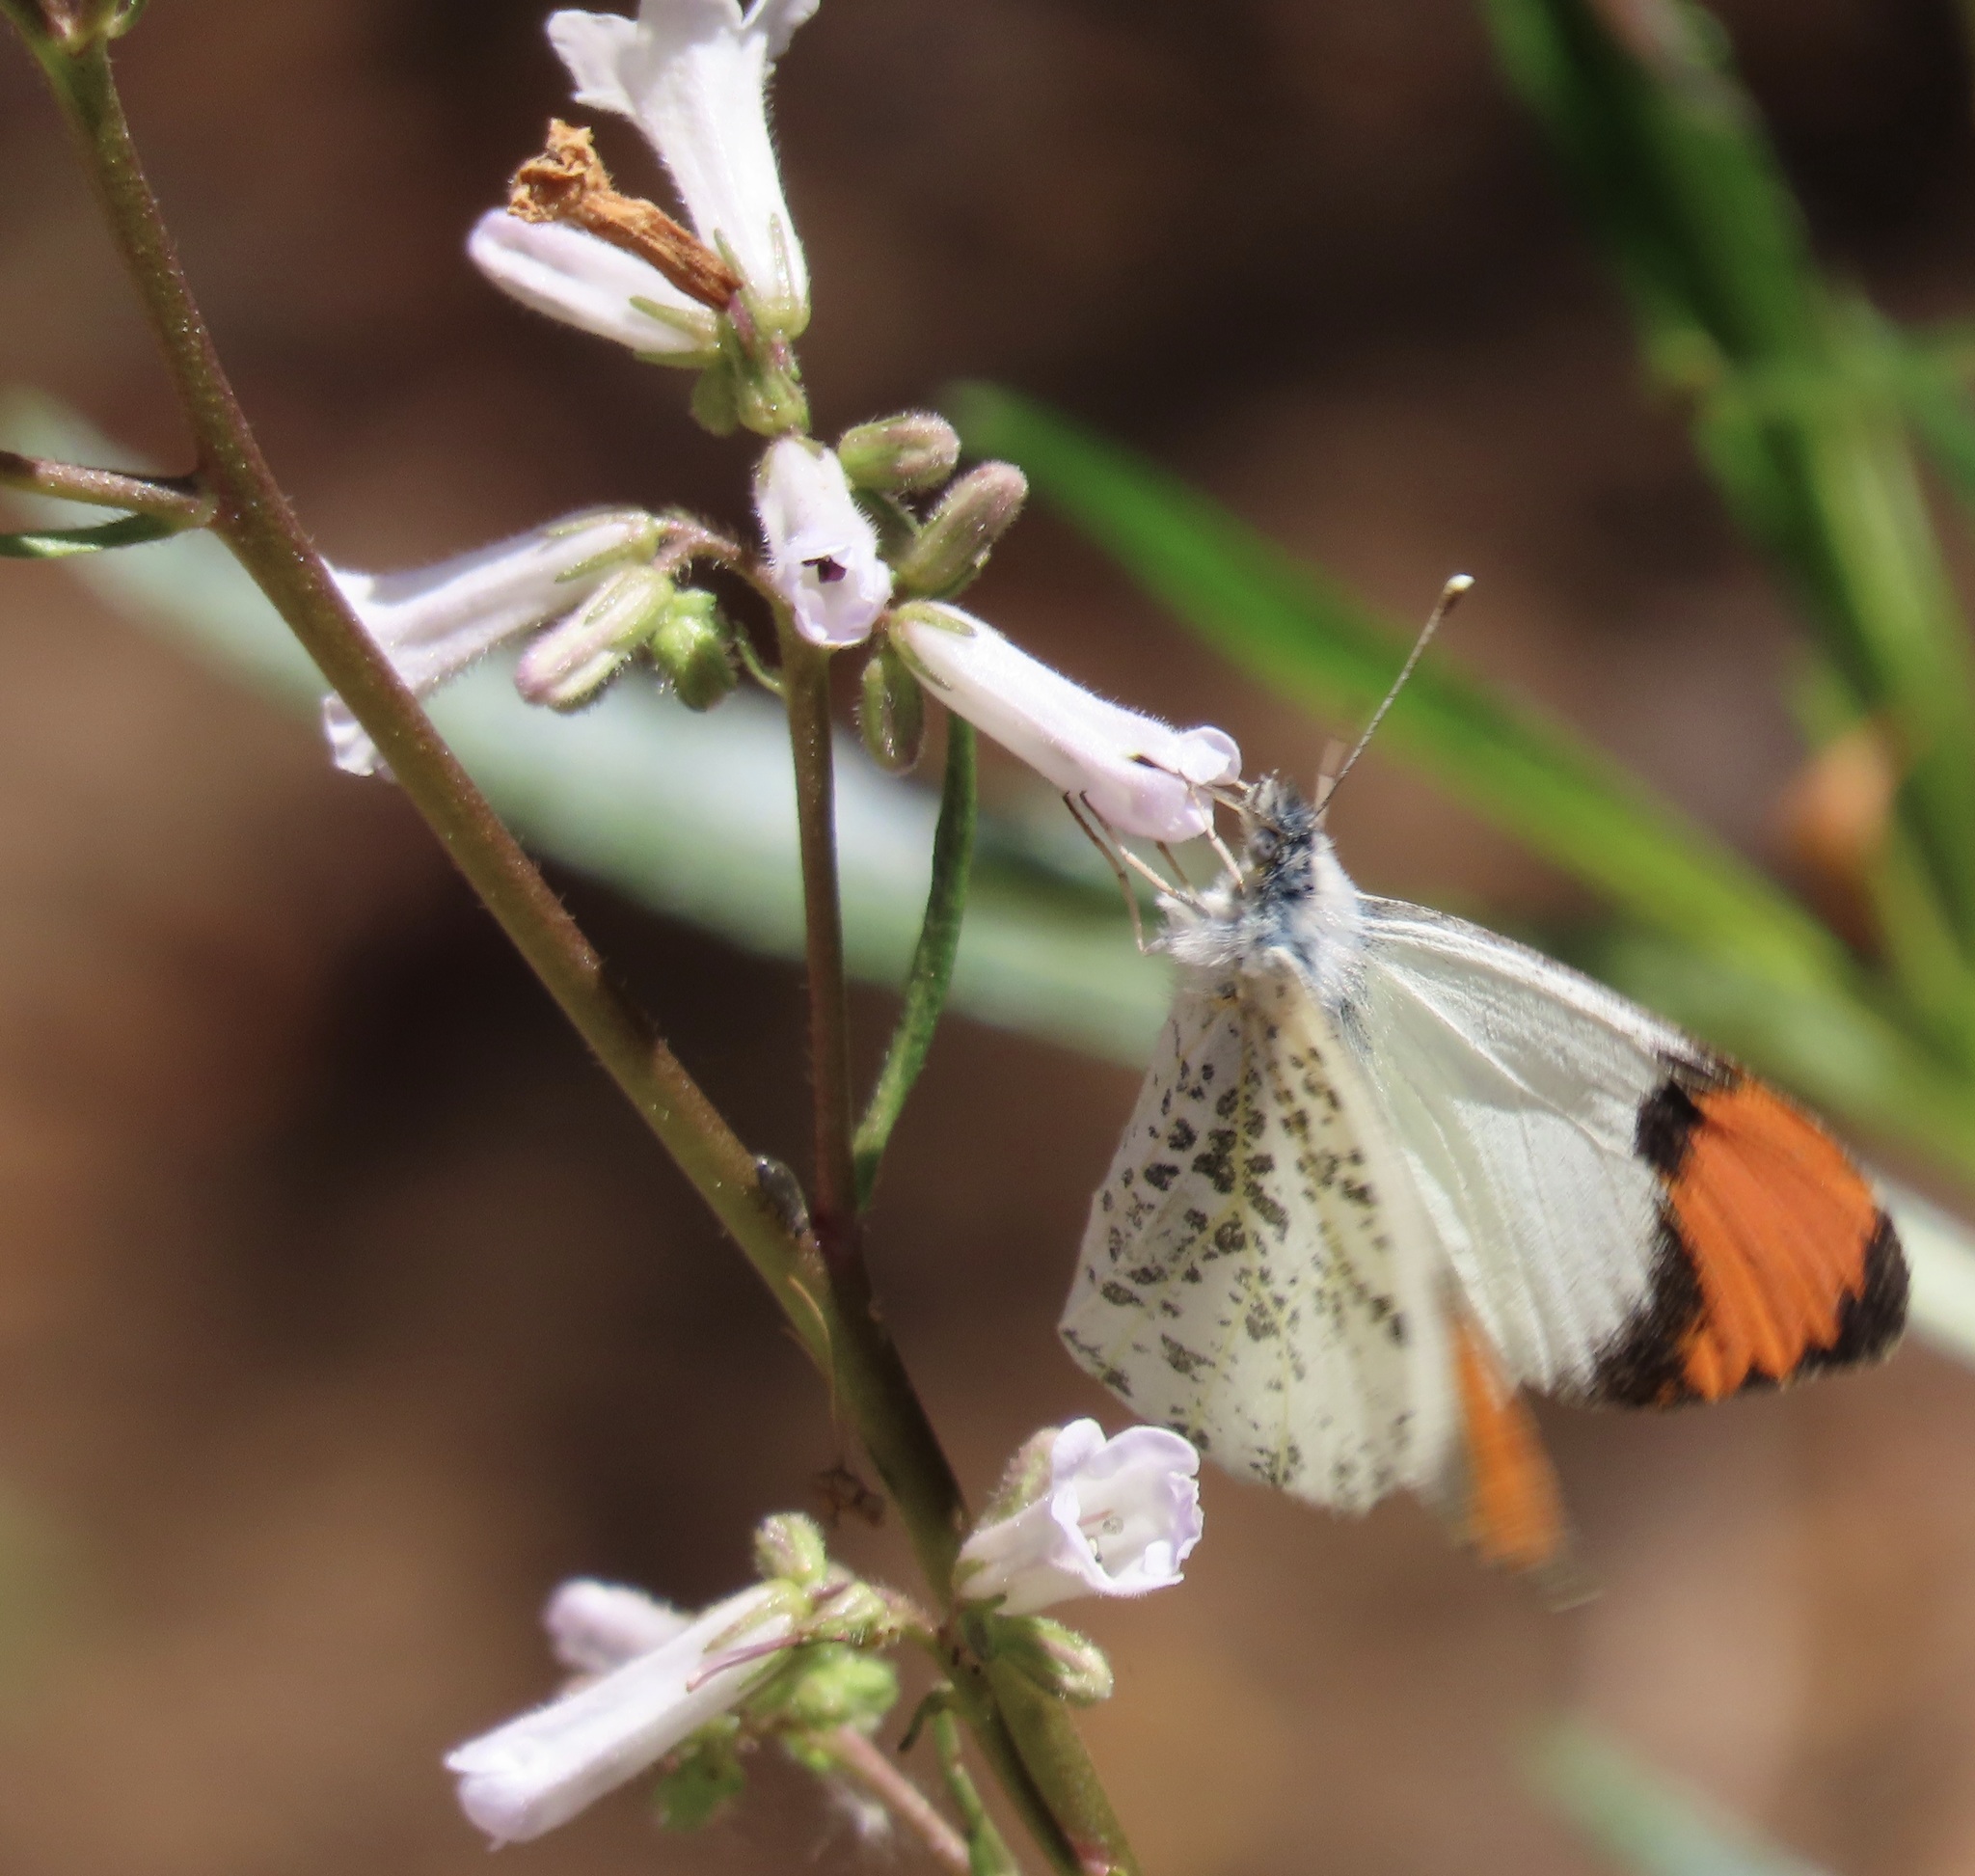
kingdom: Animalia
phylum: Arthropoda
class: Insecta
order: Lepidoptera
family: Pieridae
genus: Anthocharis
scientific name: Anthocharis sara
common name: Sara's orangetip
